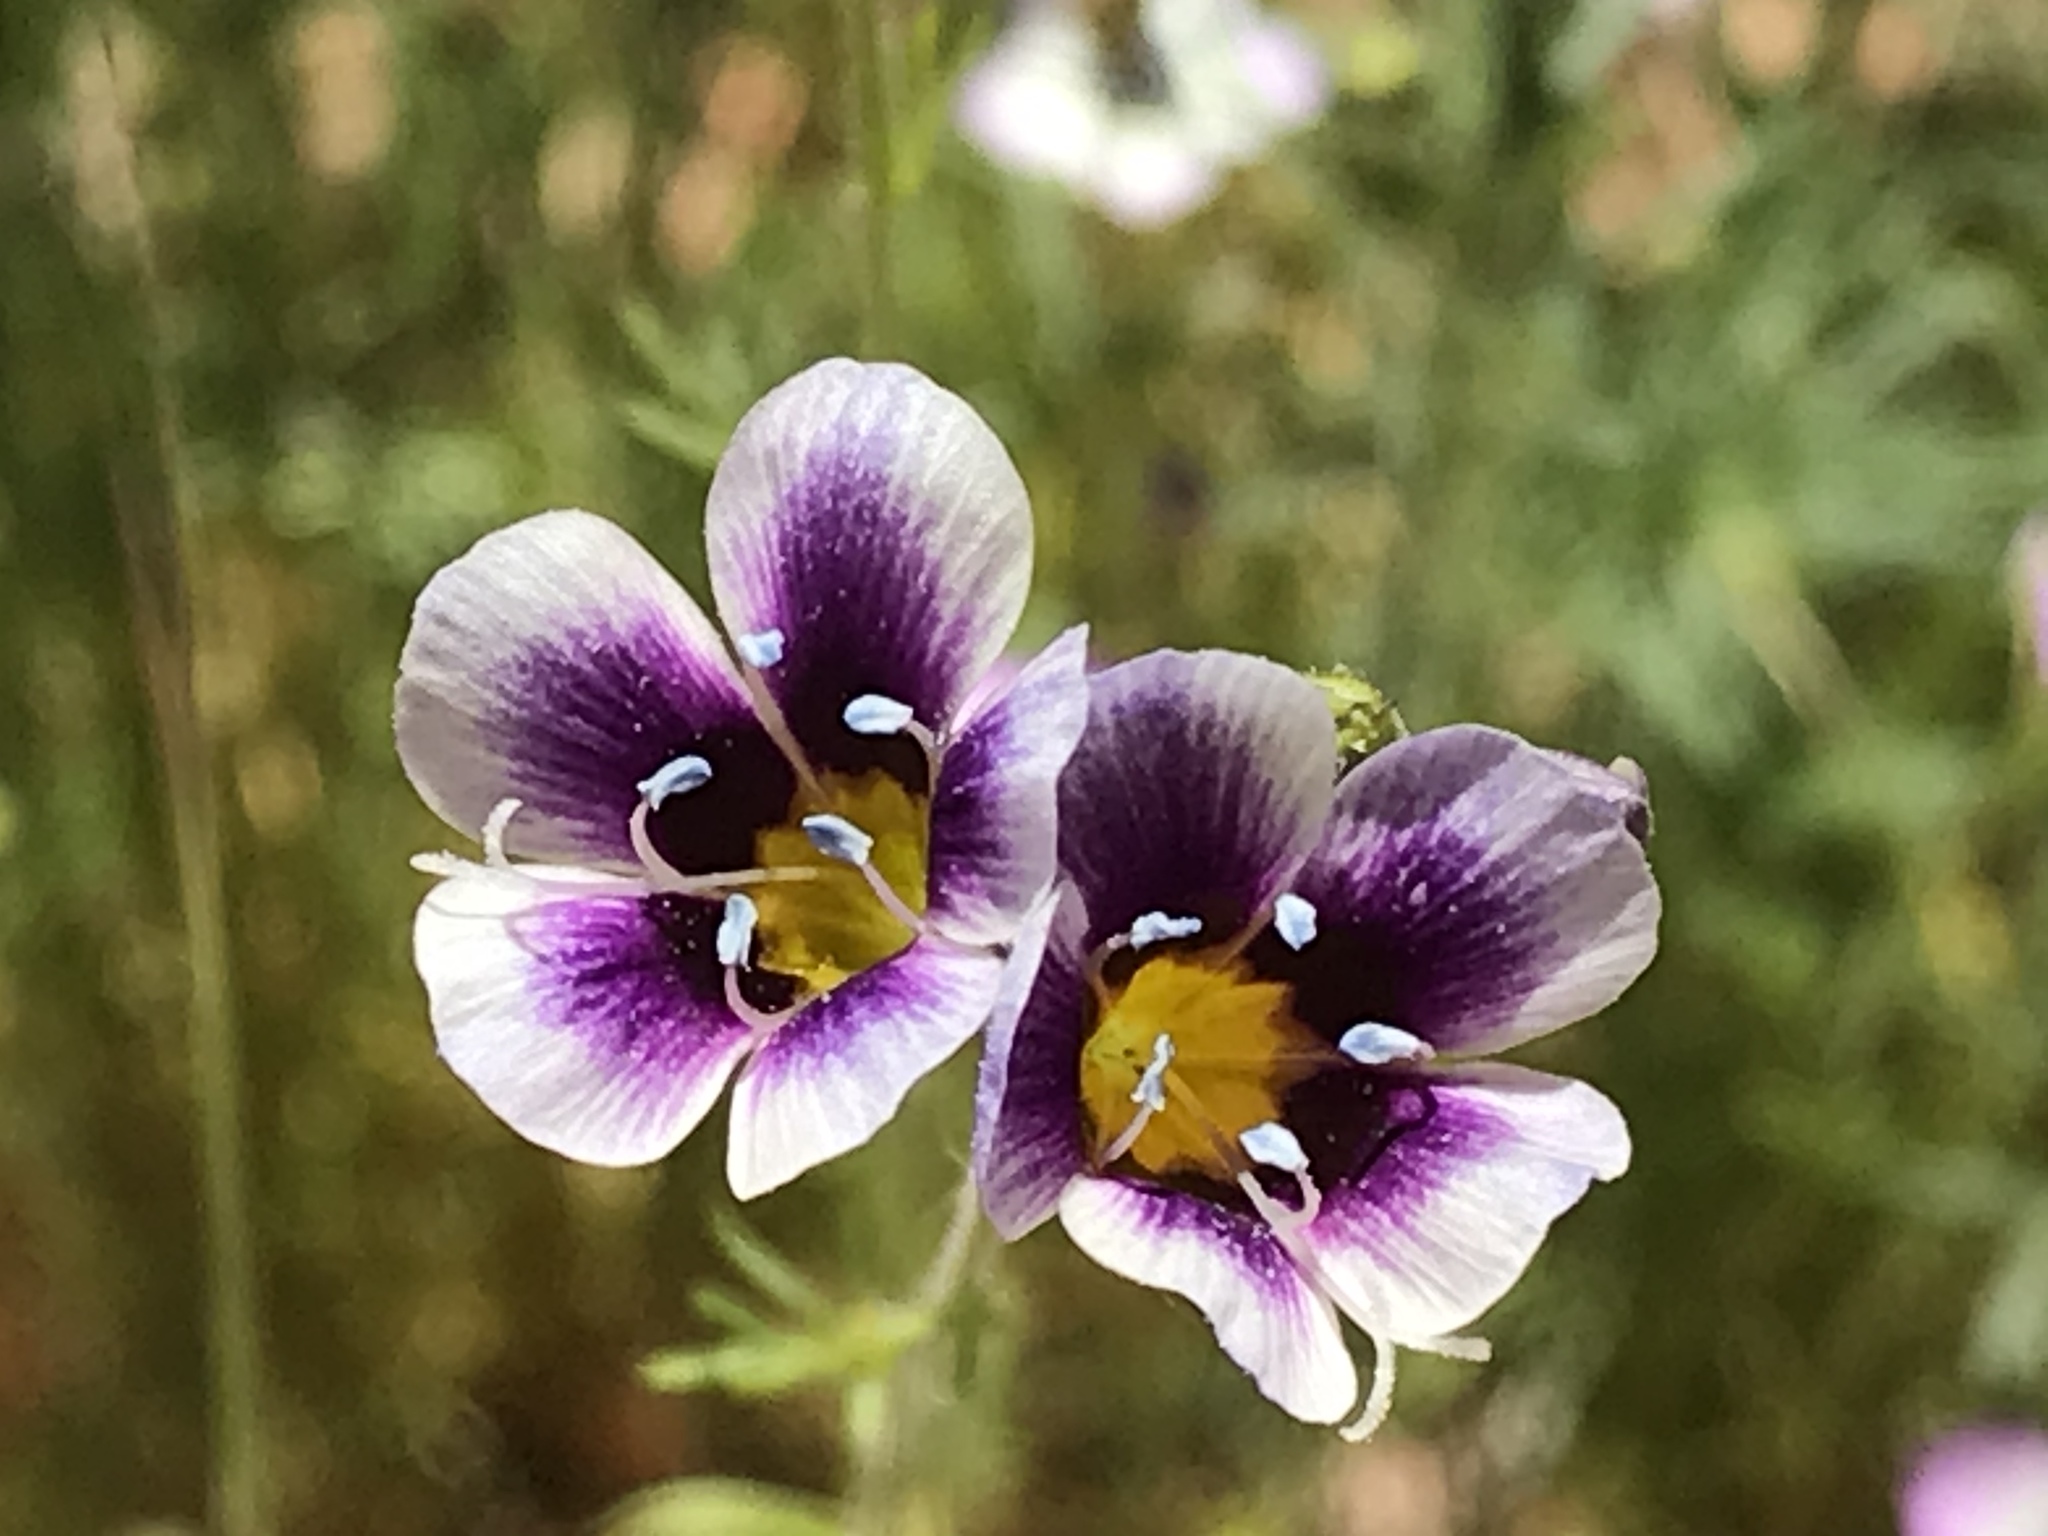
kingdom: Plantae
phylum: Tracheophyta
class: Magnoliopsida
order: Ericales
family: Polemoniaceae
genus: Gilia
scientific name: Gilia tricolor
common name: Bird's-eyes
